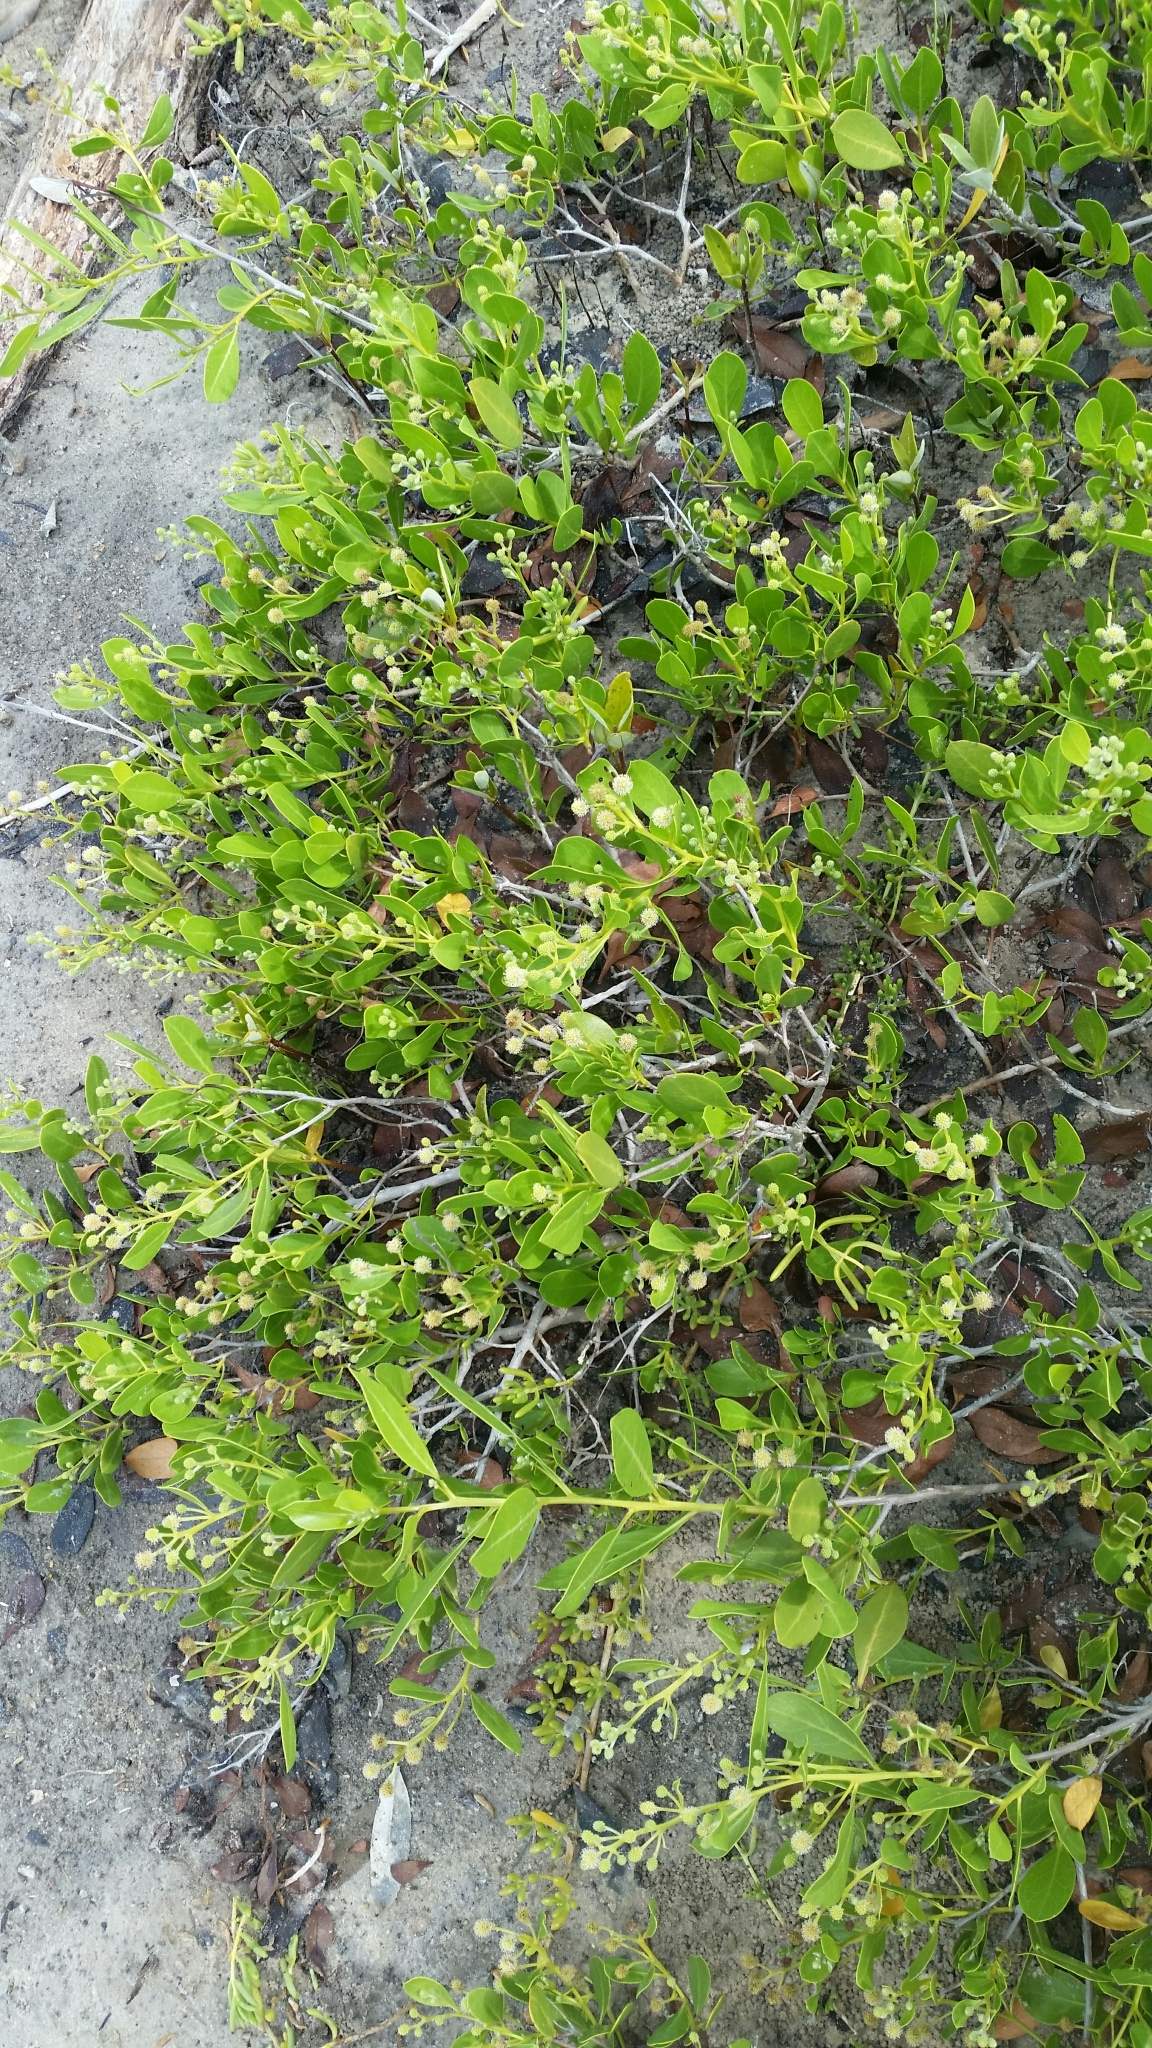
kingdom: Plantae
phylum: Tracheophyta
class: Magnoliopsida
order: Myrtales
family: Combretaceae
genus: Conocarpus
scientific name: Conocarpus erectus
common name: Button mangrove
